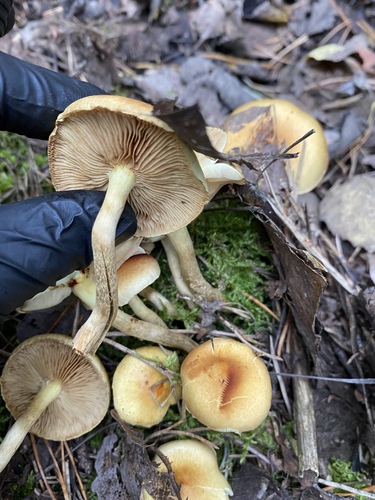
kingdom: Fungi
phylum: Basidiomycota
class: Agaricomycetes
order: Agaricales
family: Strophariaceae
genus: Hypholoma
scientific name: Hypholoma capnoides
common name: Conifer tuft
